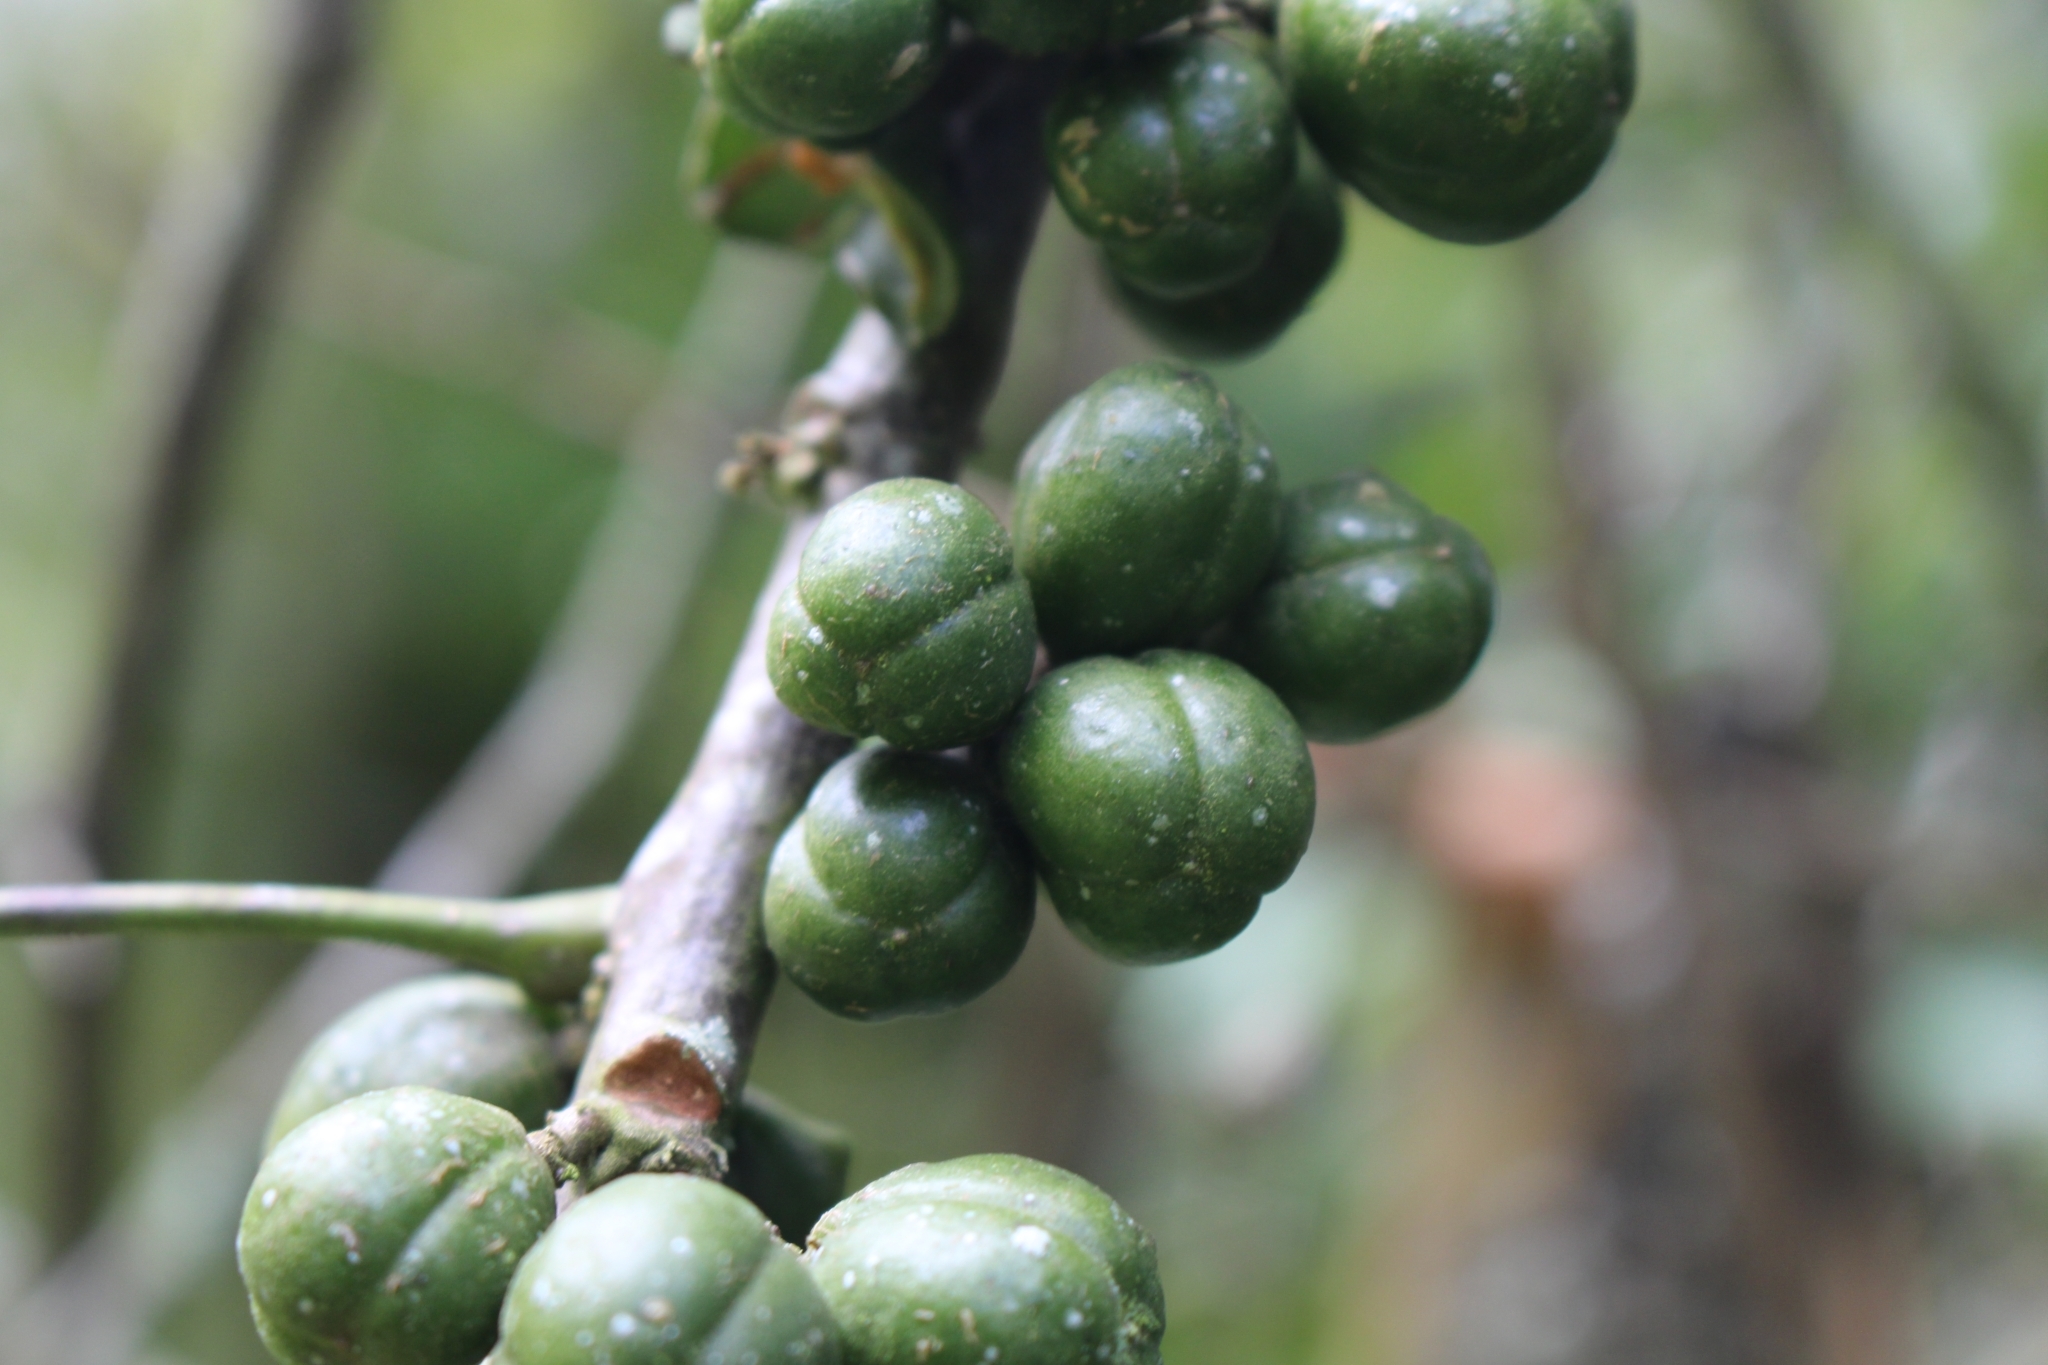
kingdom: Plantae
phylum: Tracheophyta
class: Magnoliopsida
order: Sapindales
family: Meliaceae
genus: Trichilia
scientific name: Trichilia havanensis
